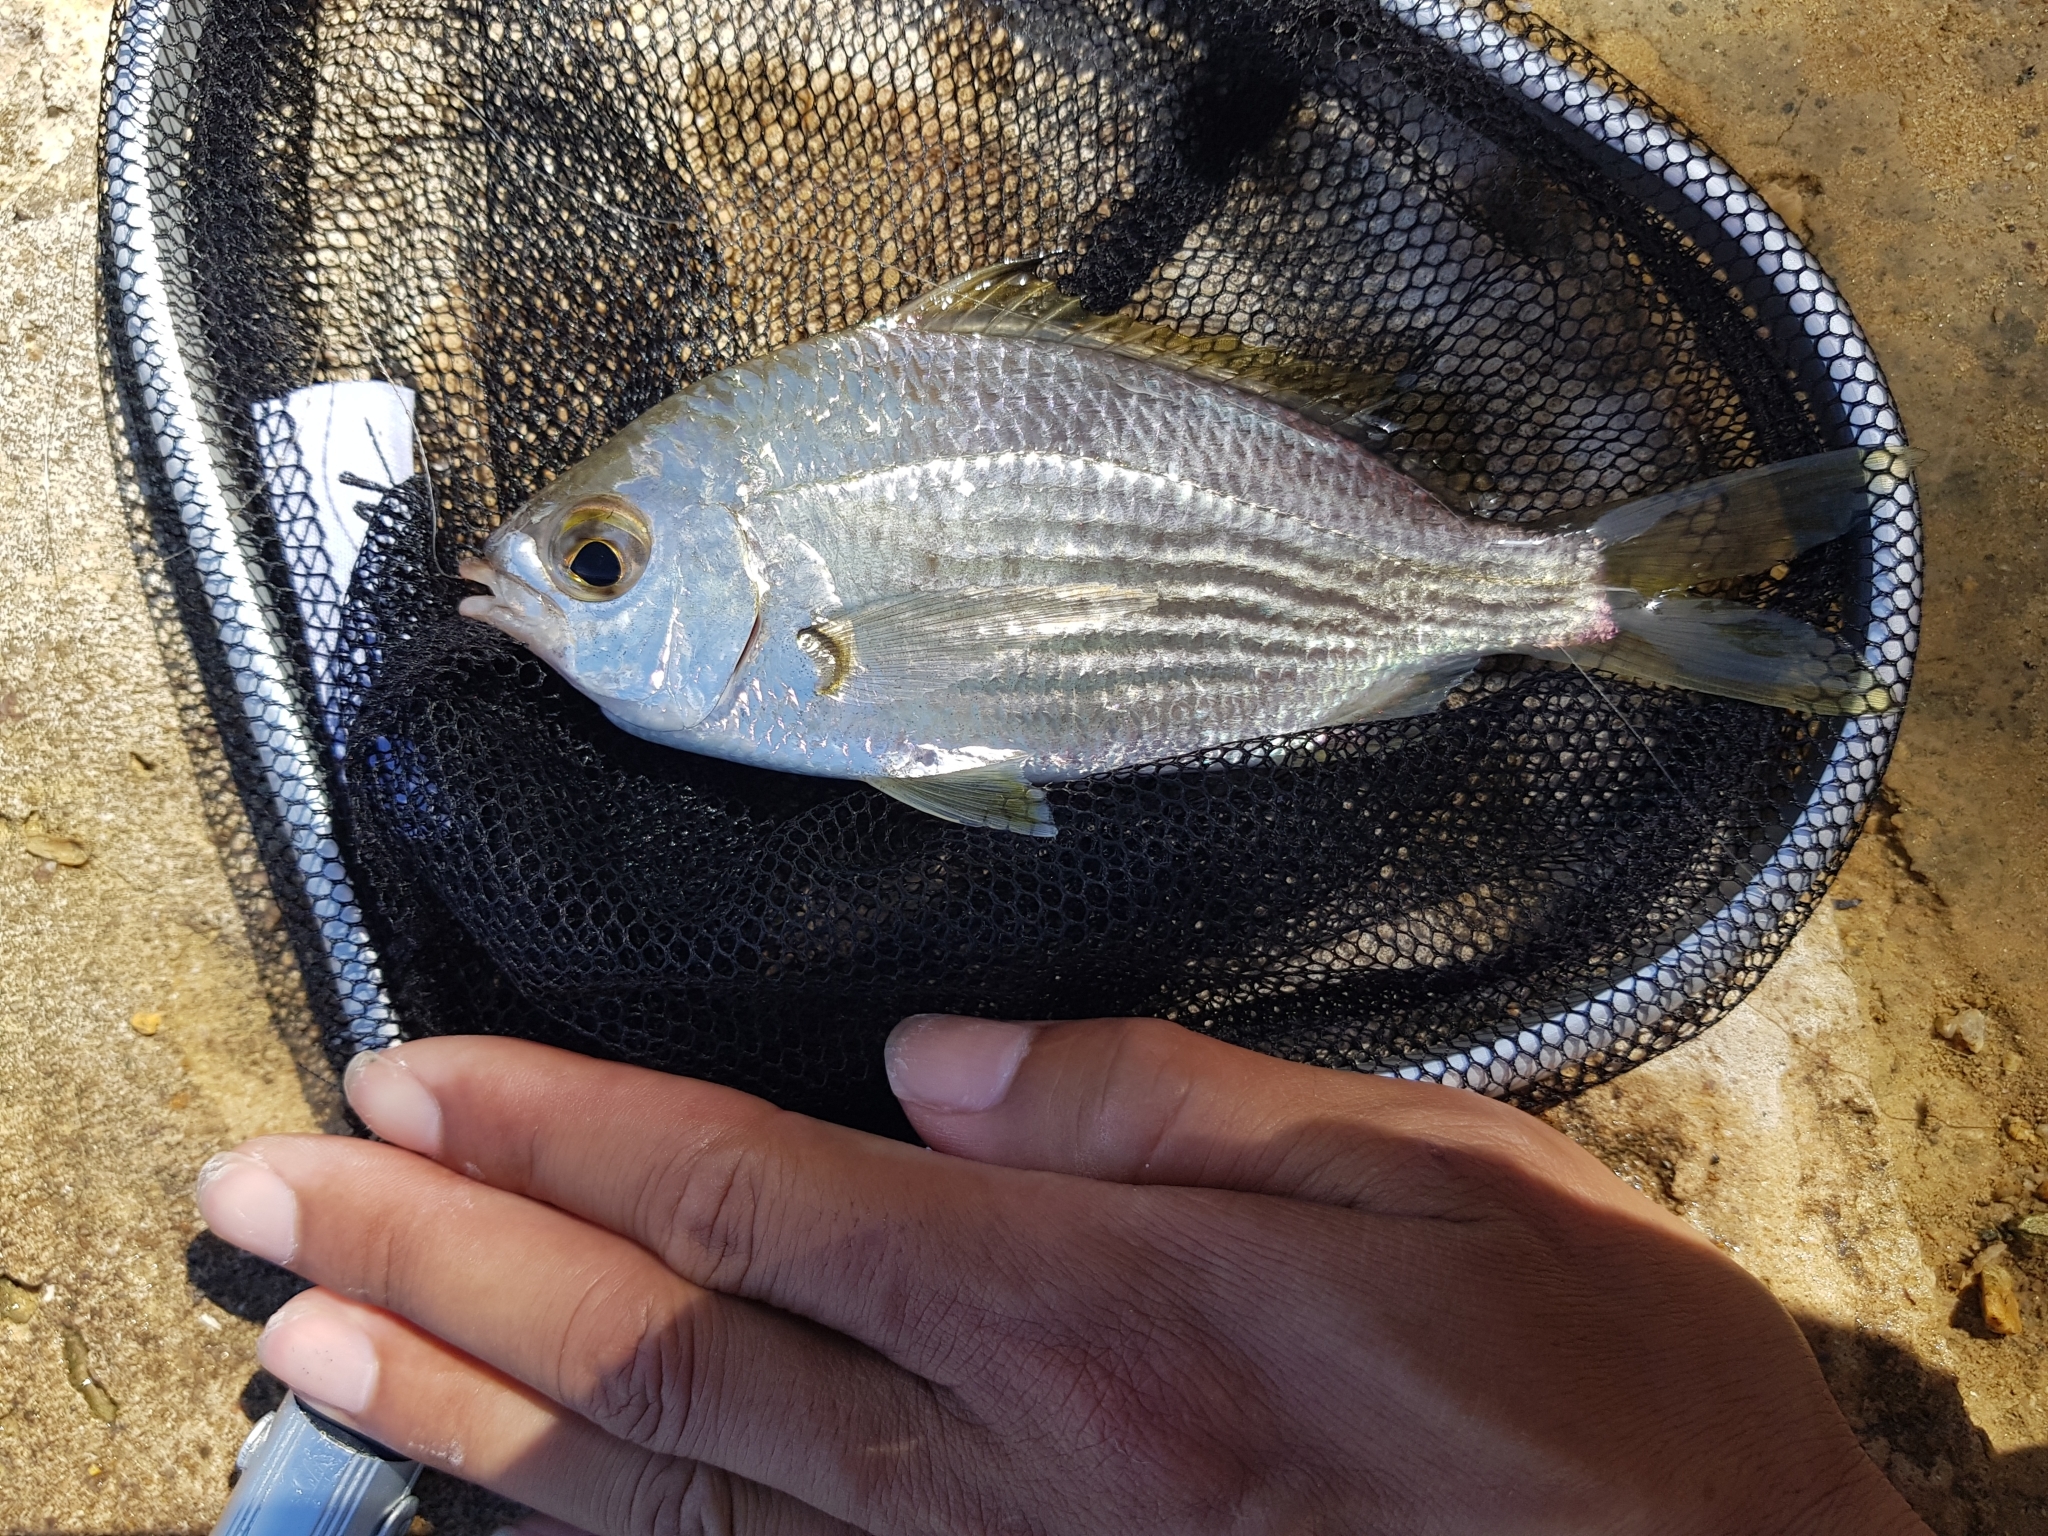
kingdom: Animalia
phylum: Chordata
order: Perciformes
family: Gerreidae
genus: Gerres
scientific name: Gerres subfasciatus
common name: Common silver belly
